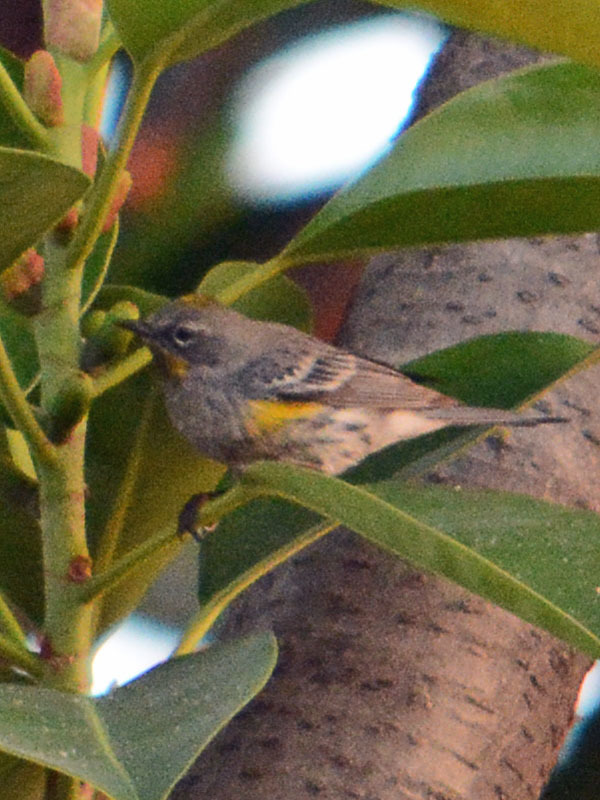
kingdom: Animalia
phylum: Chordata
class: Aves
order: Passeriformes
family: Parulidae
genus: Setophaga
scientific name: Setophaga auduboni
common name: Audubon's warbler
